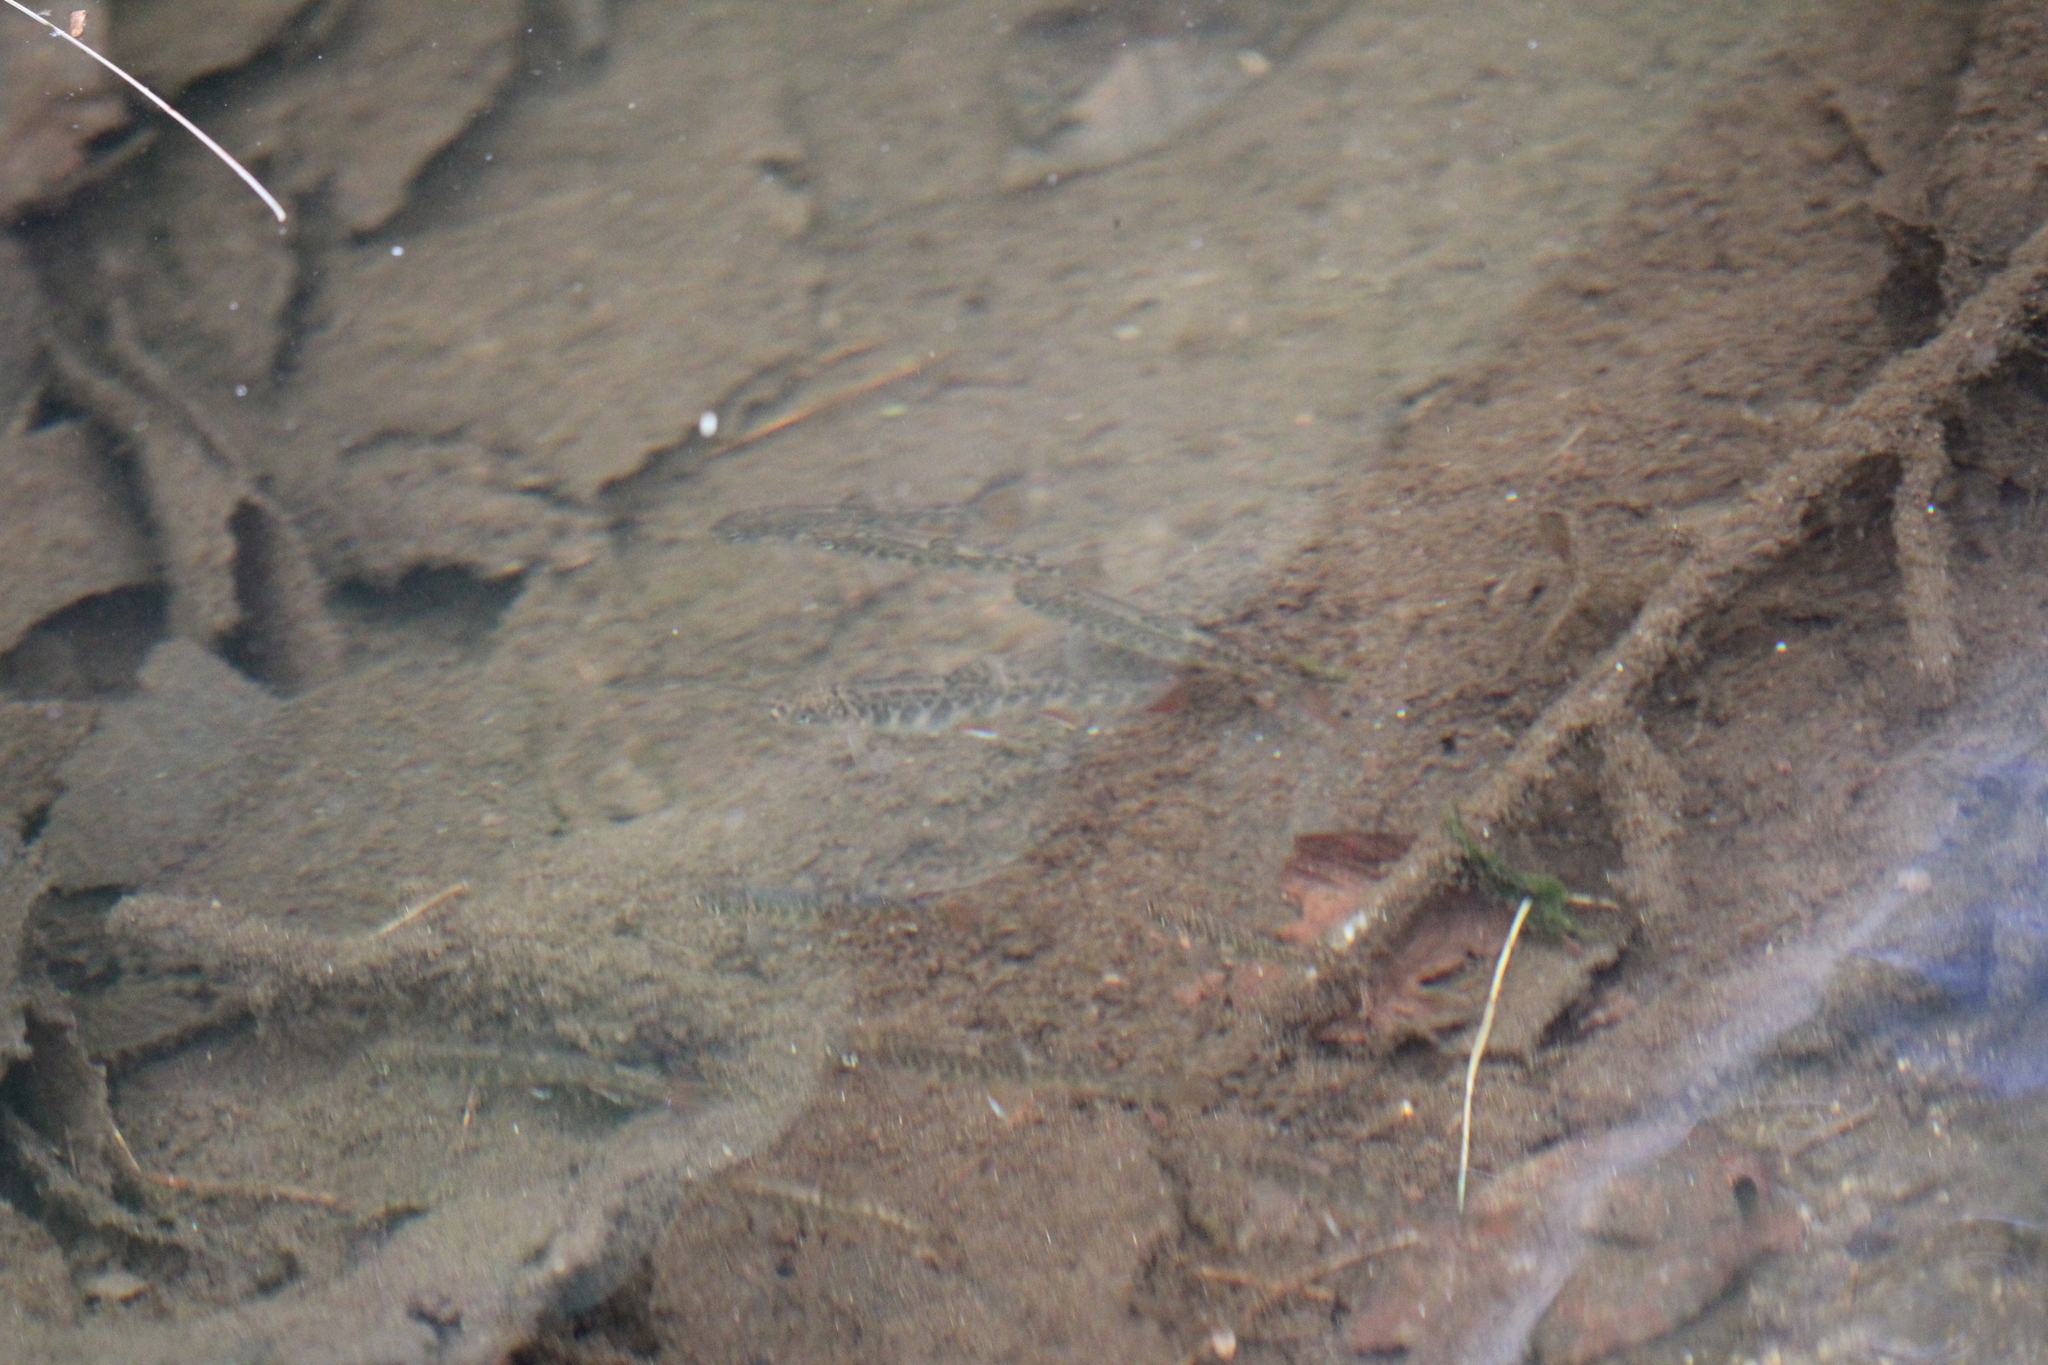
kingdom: Animalia
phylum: Chordata
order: Salmoniformes
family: Salmonidae
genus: Salvelinus
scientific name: Salvelinus fontinalis
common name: Brook trout
